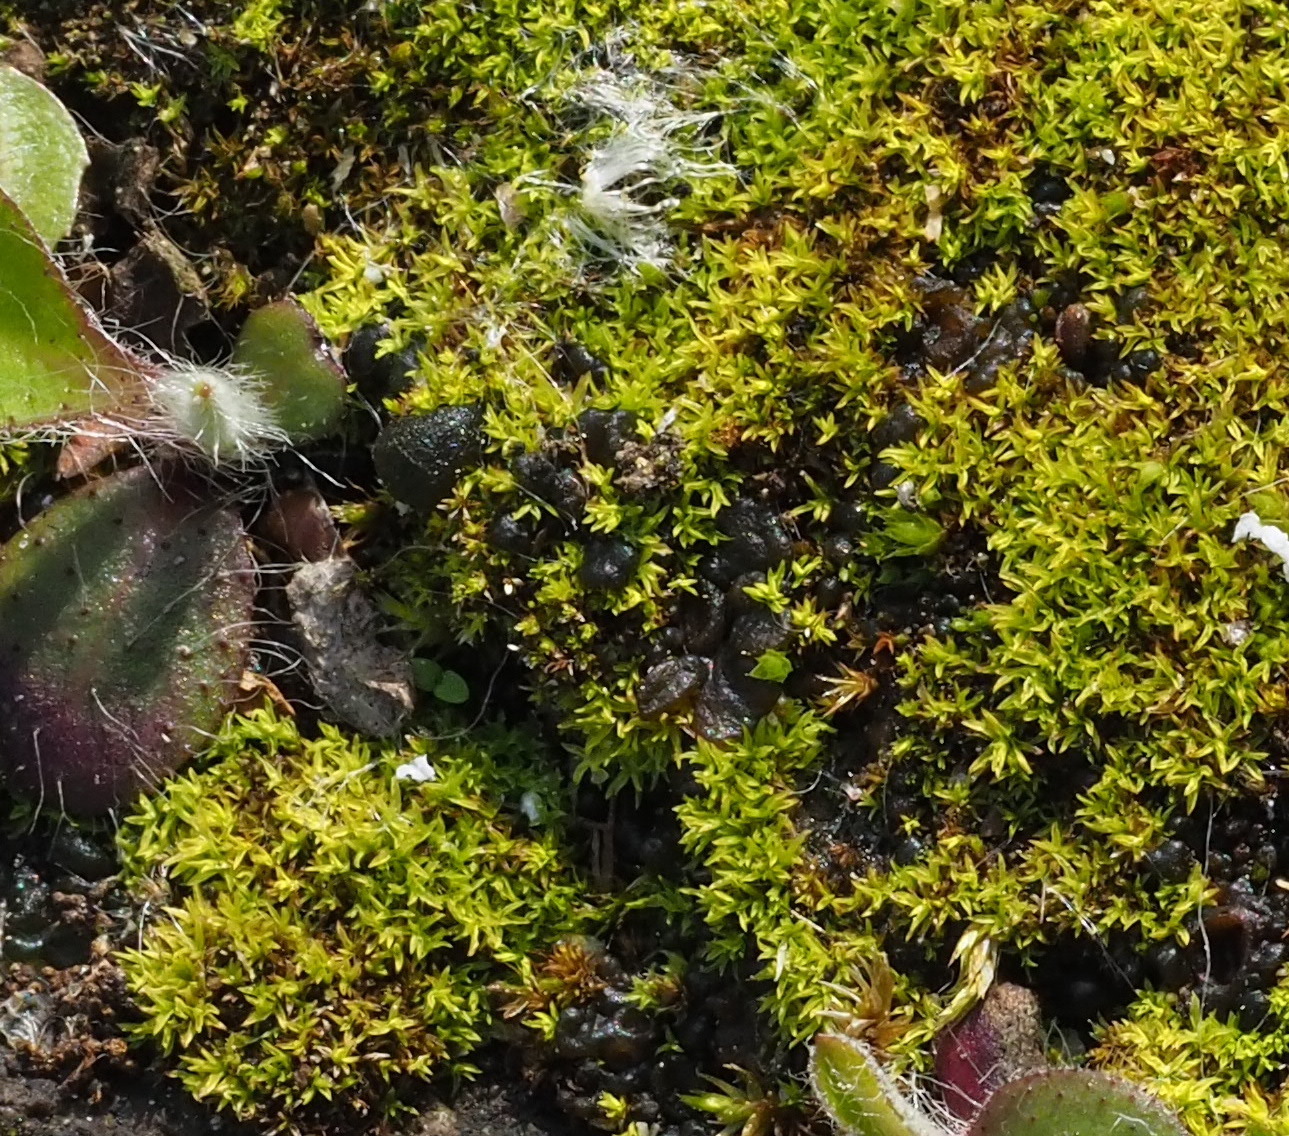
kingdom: Bacteria
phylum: Cyanobacteria
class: Cyanobacteriia
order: Cyanobacteriales
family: Nostocaceae
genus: Nostoc
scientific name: Nostoc commune
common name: Star jelly
